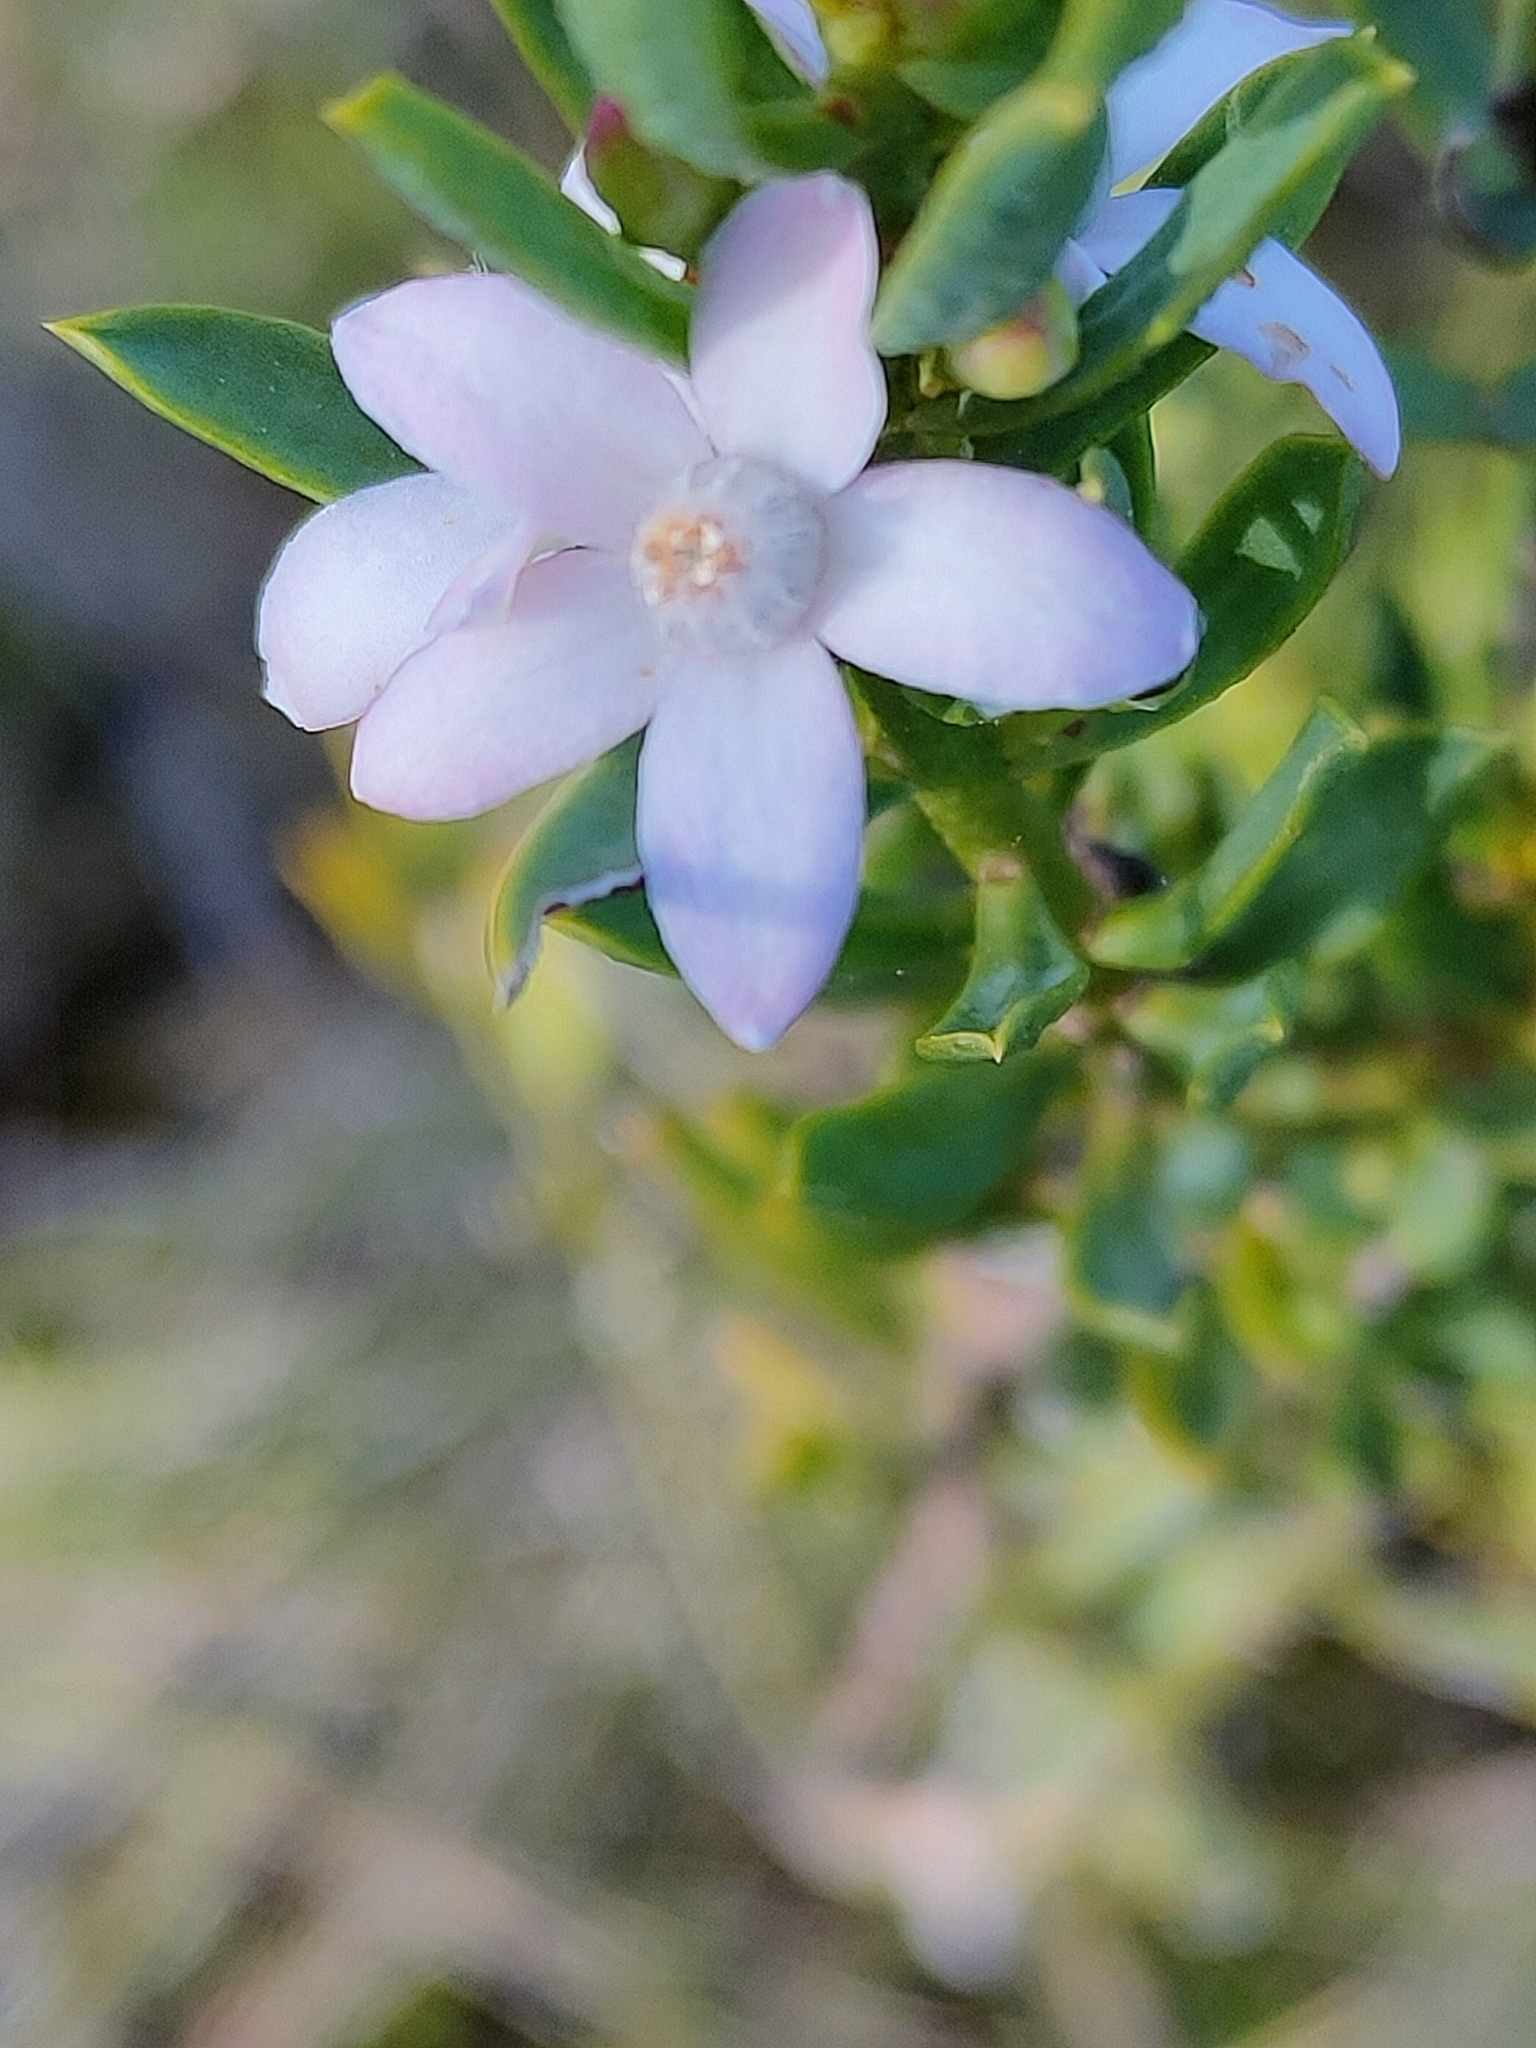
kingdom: Plantae
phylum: Tracheophyta
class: Magnoliopsida
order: Sapindales
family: Rutaceae
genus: Philotheca
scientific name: Philotheca queenslandica
